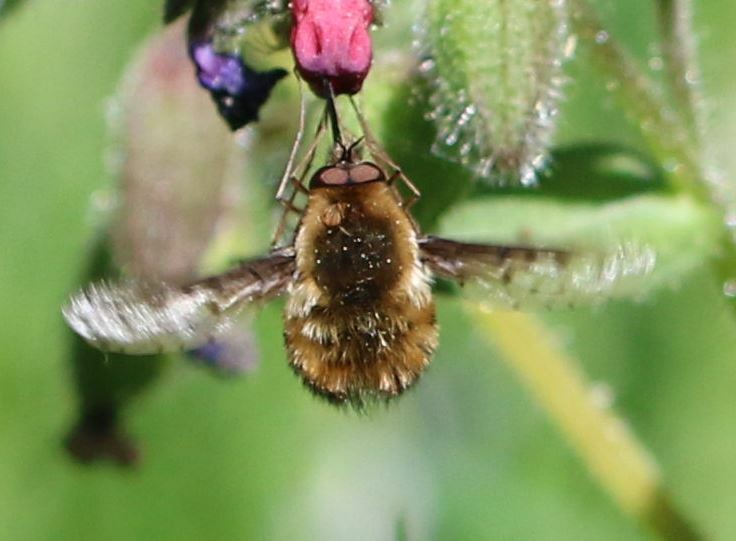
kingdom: Animalia
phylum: Arthropoda
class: Insecta
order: Diptera
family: Bombyliidae
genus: Bombylius
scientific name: Bombylius discolor
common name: Dotted bee-fly
